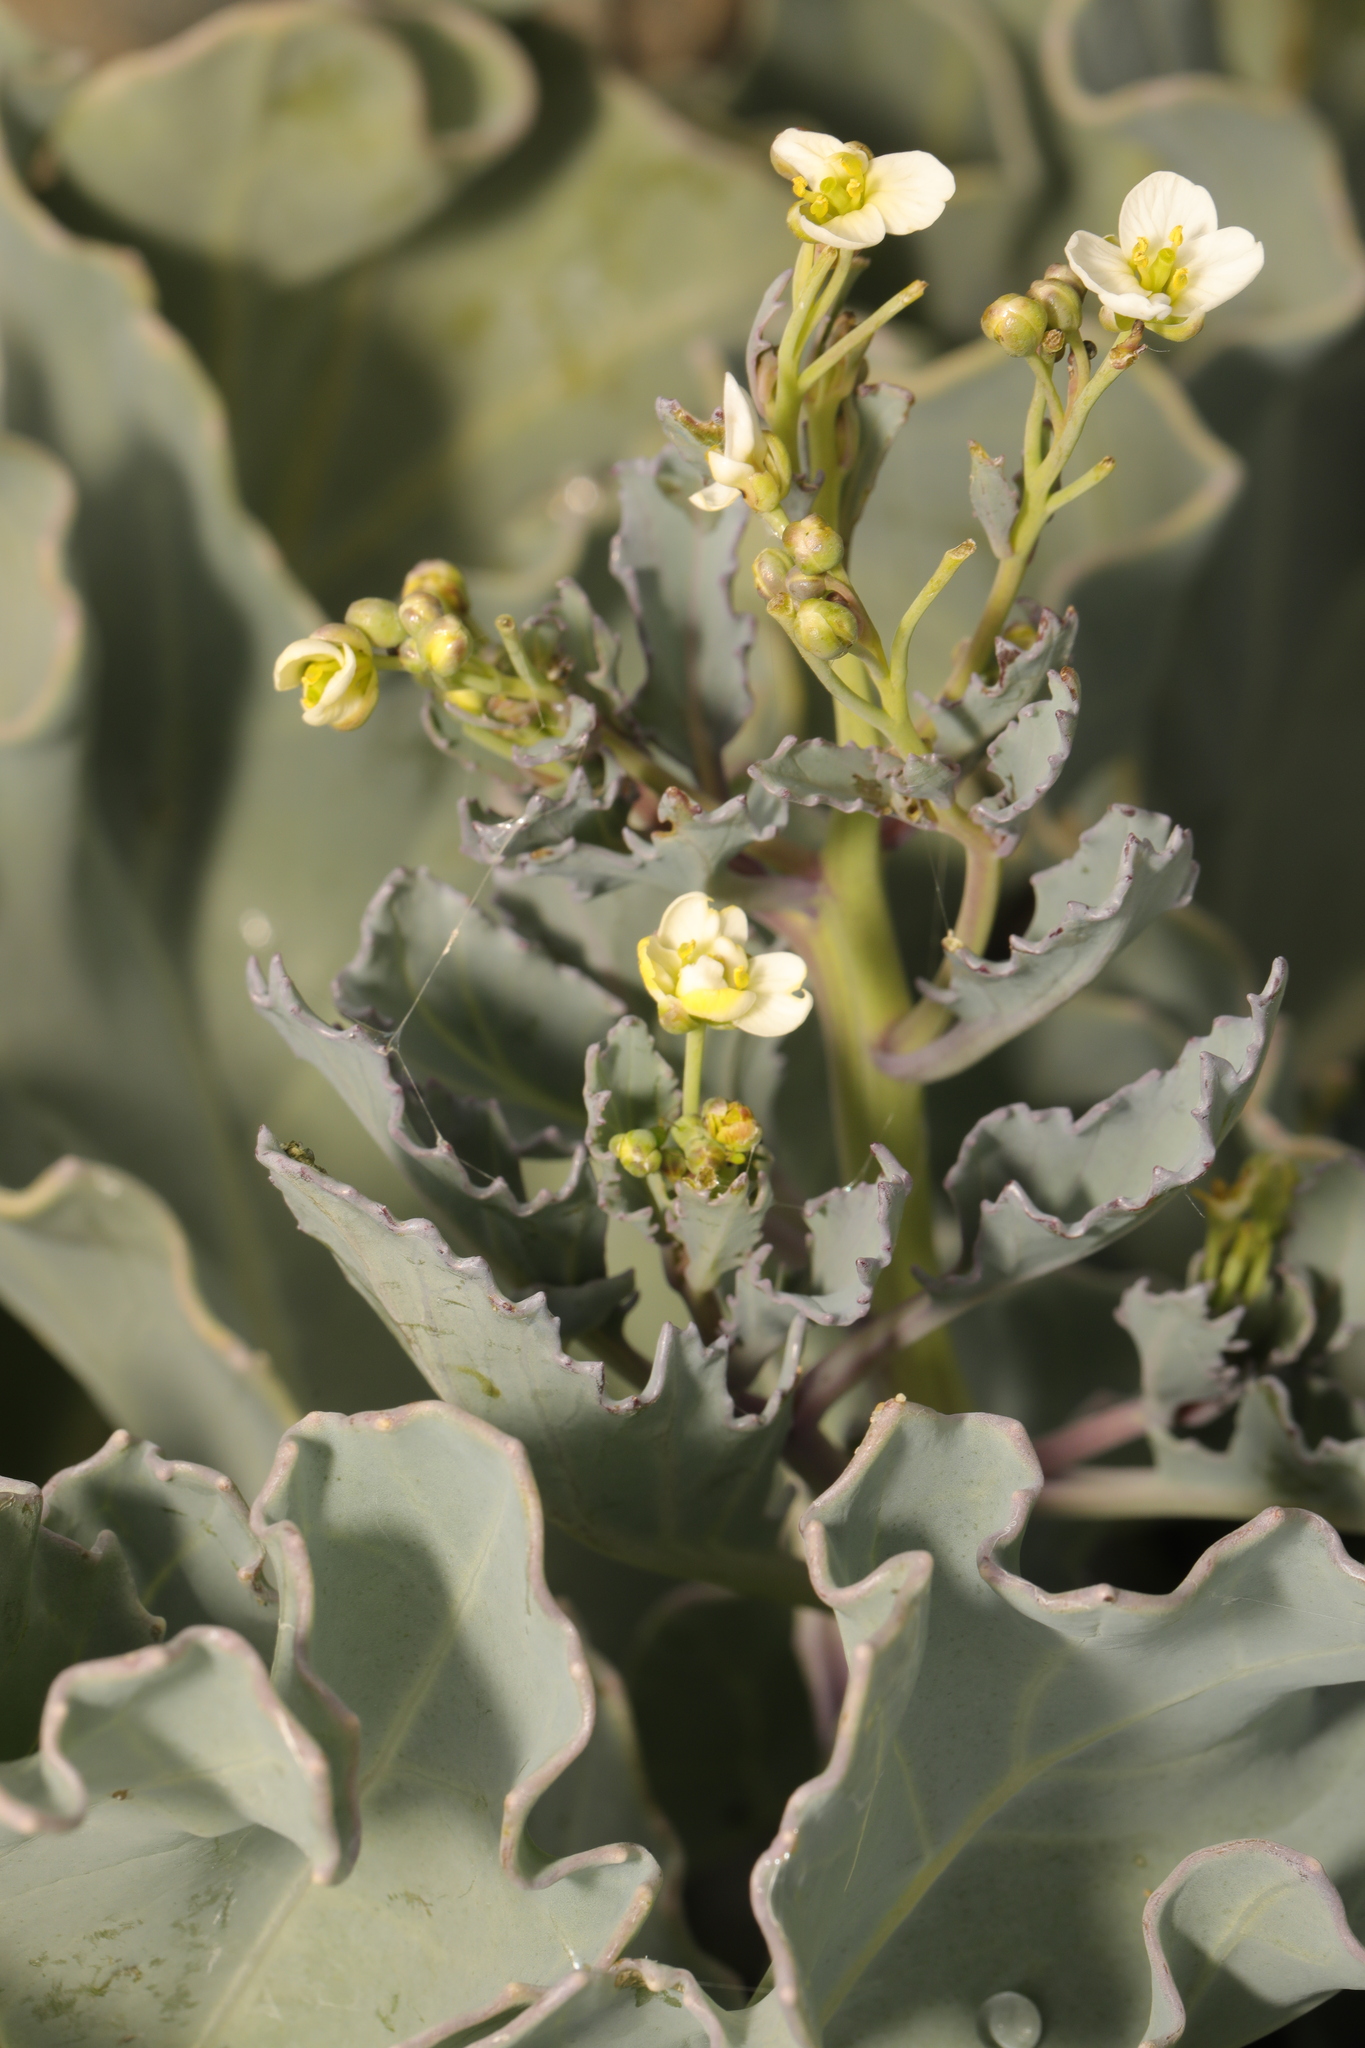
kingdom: Plantae
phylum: Tracheophyta
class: Magnoliopsida
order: Brassicales
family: Brassicaceae
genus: Crambe
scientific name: Crambe maritima
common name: Sea-kale
